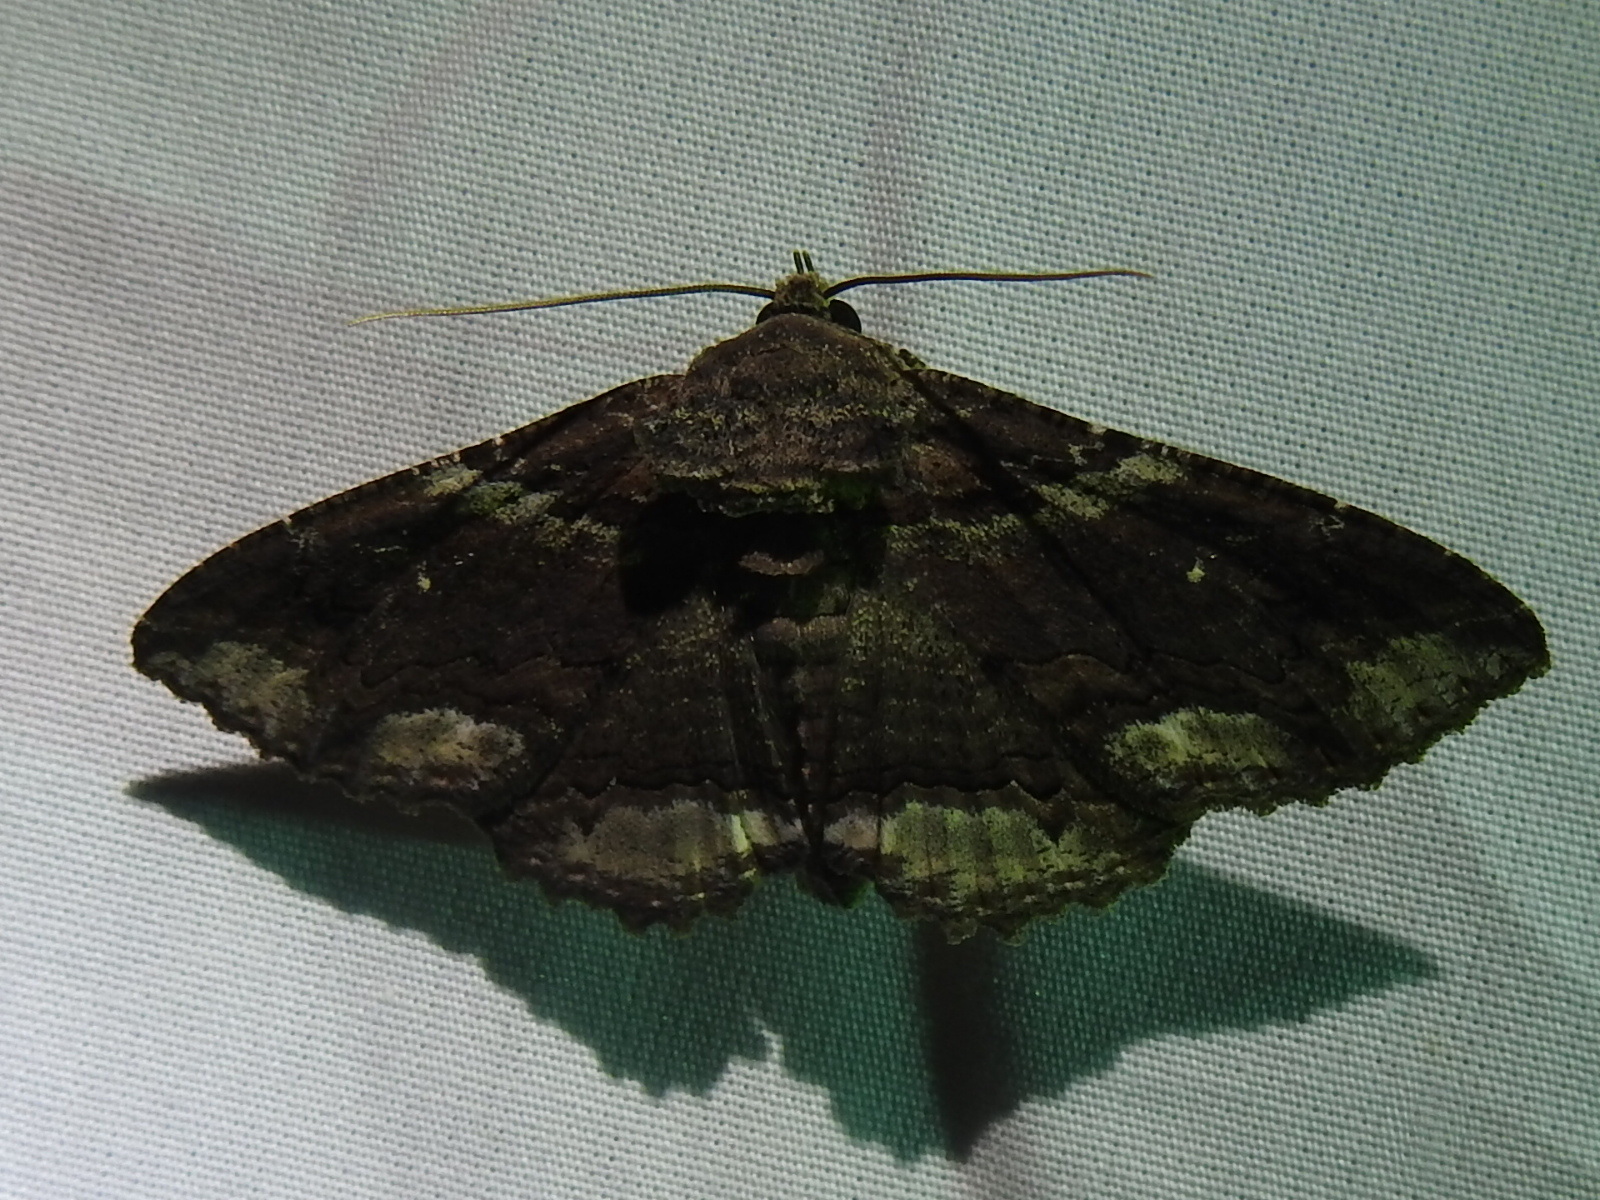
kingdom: Animalia
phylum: Arthropoda
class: Insecta
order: Lepidoptera
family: Erebidae
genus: Zale
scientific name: Zale lunata
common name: Lunate zale moth
